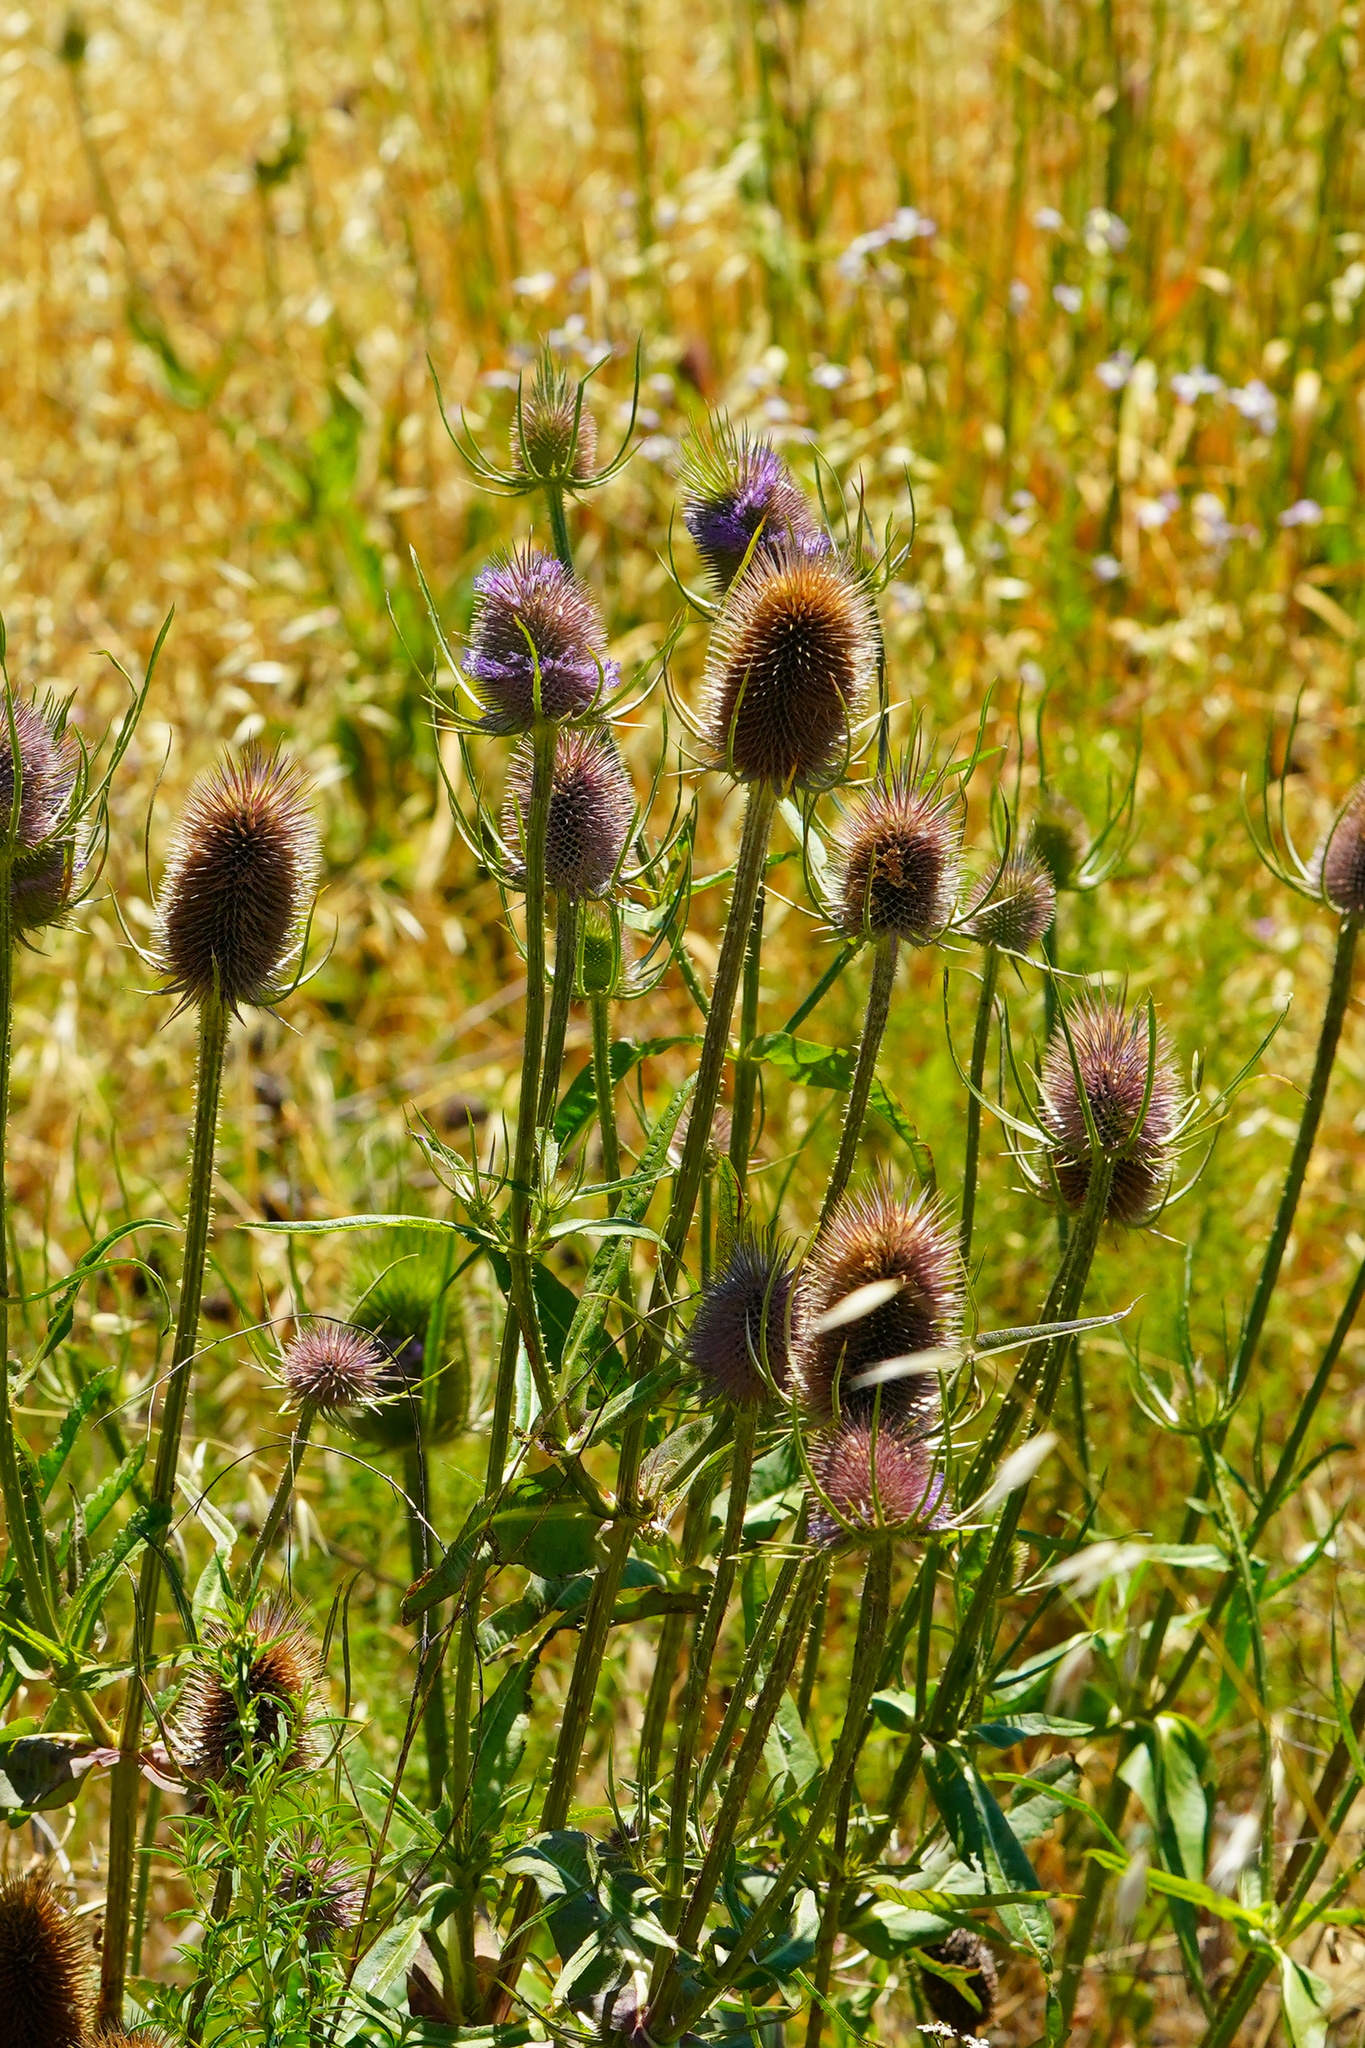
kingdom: Plantae
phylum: Tracheophyta
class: Magnoliopsida
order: Dipsacales
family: Caprifoliaceae
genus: Dipsacus
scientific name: Dipsacus fullonum
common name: Teasel
